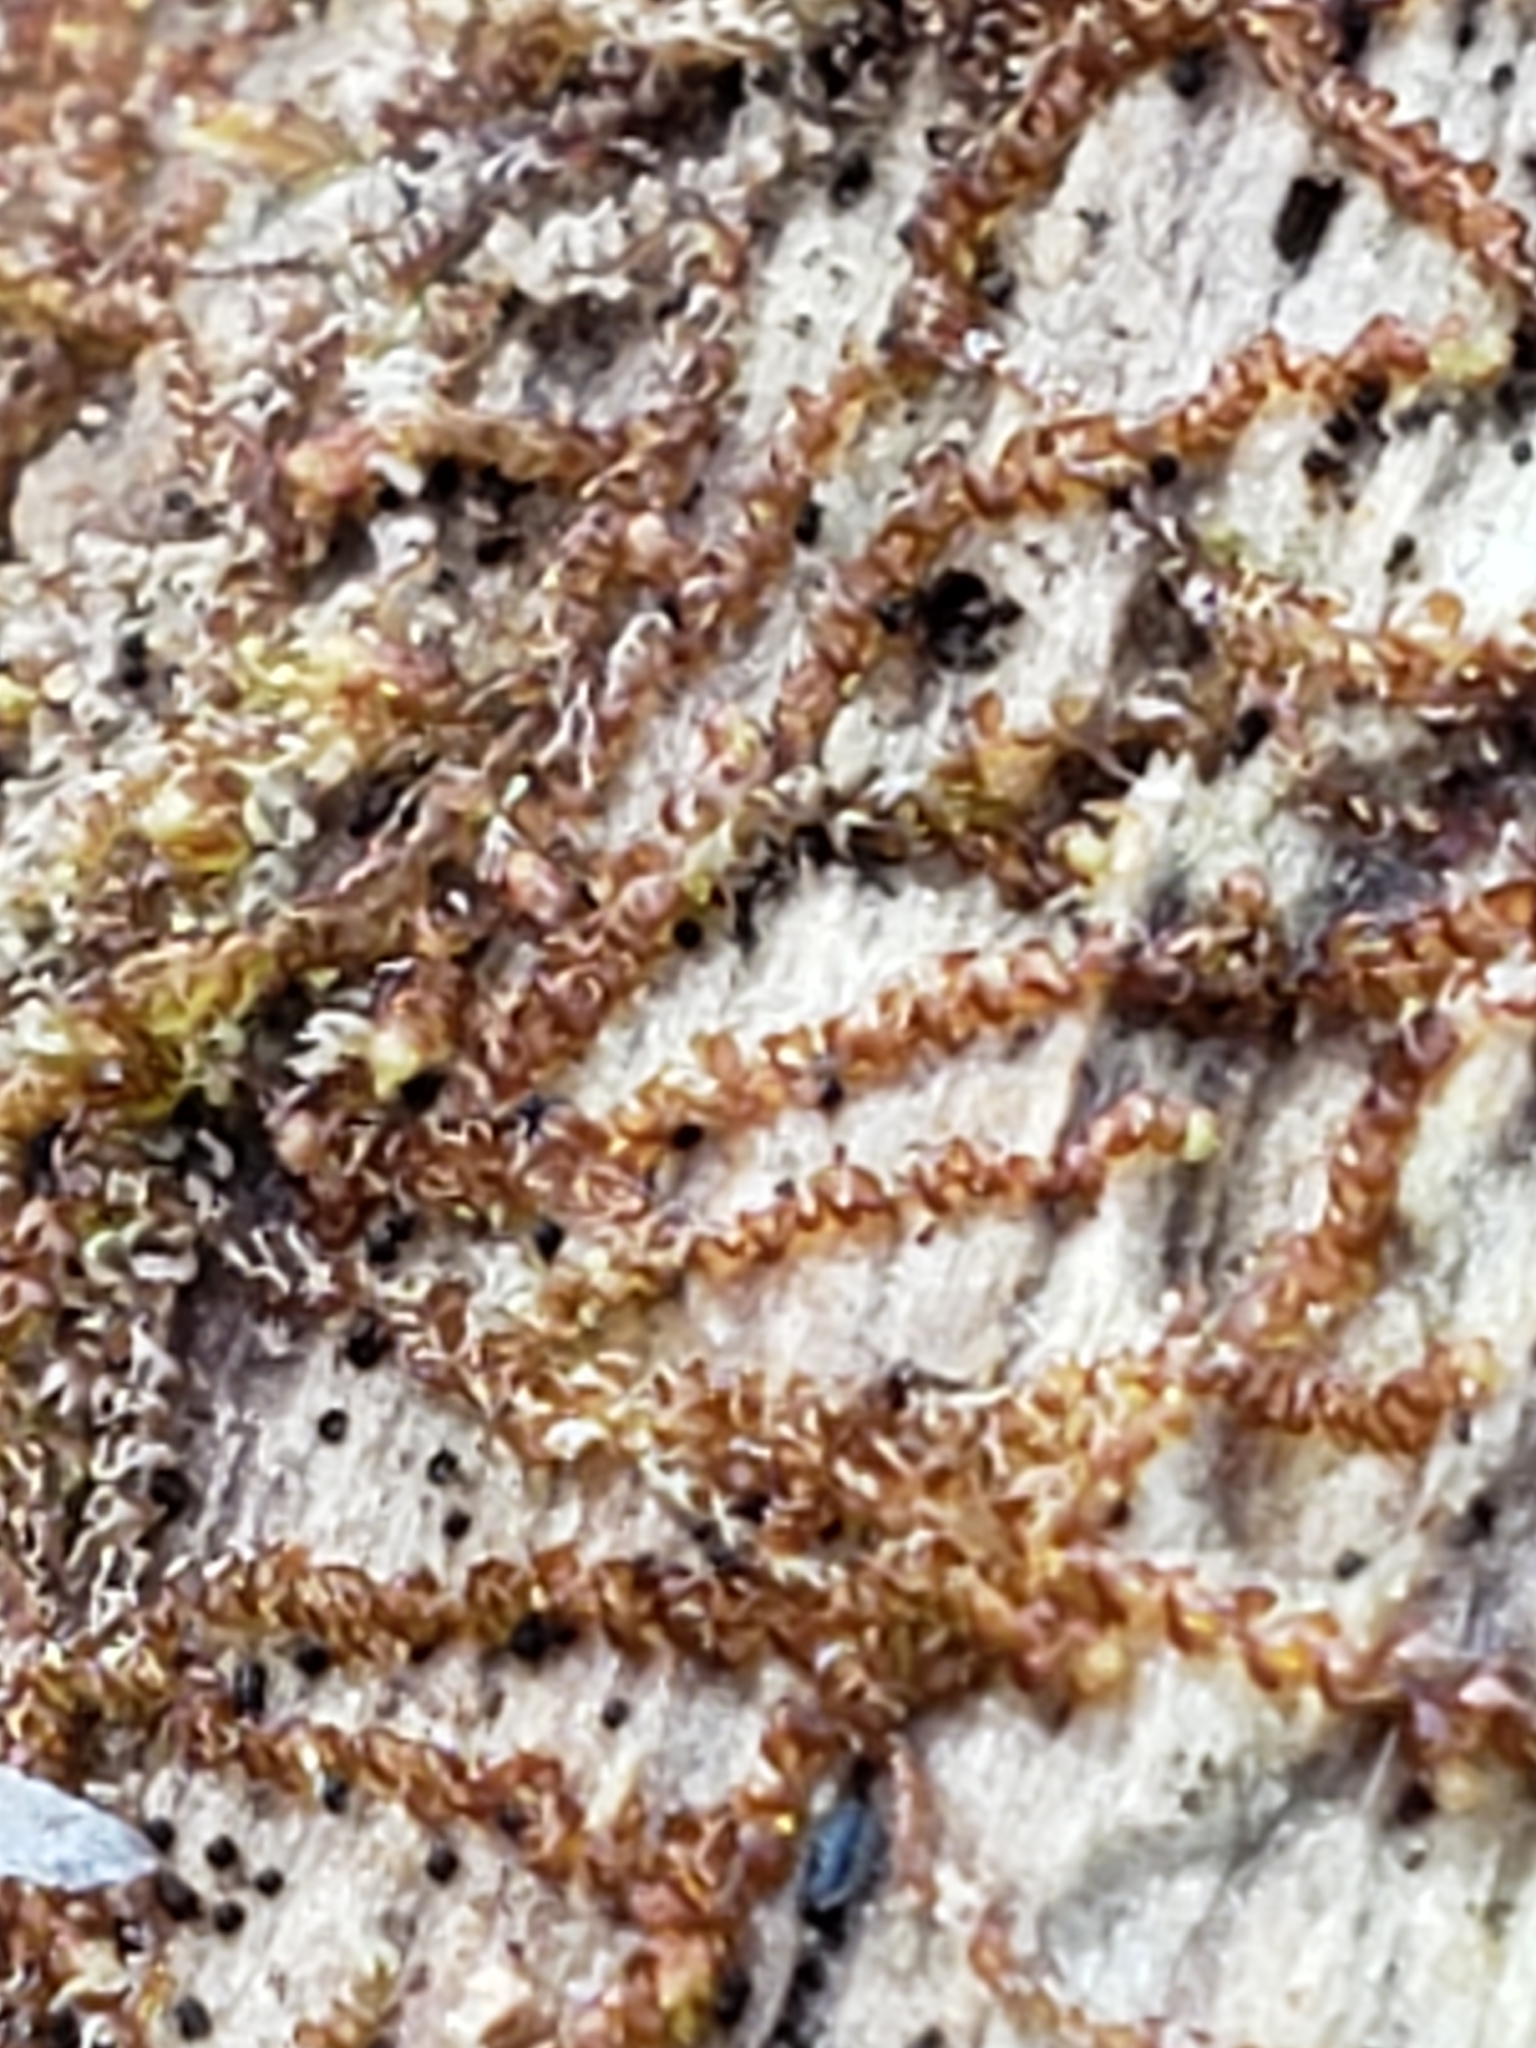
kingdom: Plantae
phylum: Marchantiophyta
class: Jungermanniopsida
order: Jungermanniales
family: Cephaloziaceae
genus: Nowellia
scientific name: Nowellia curvifolia
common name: Wood rustwort
